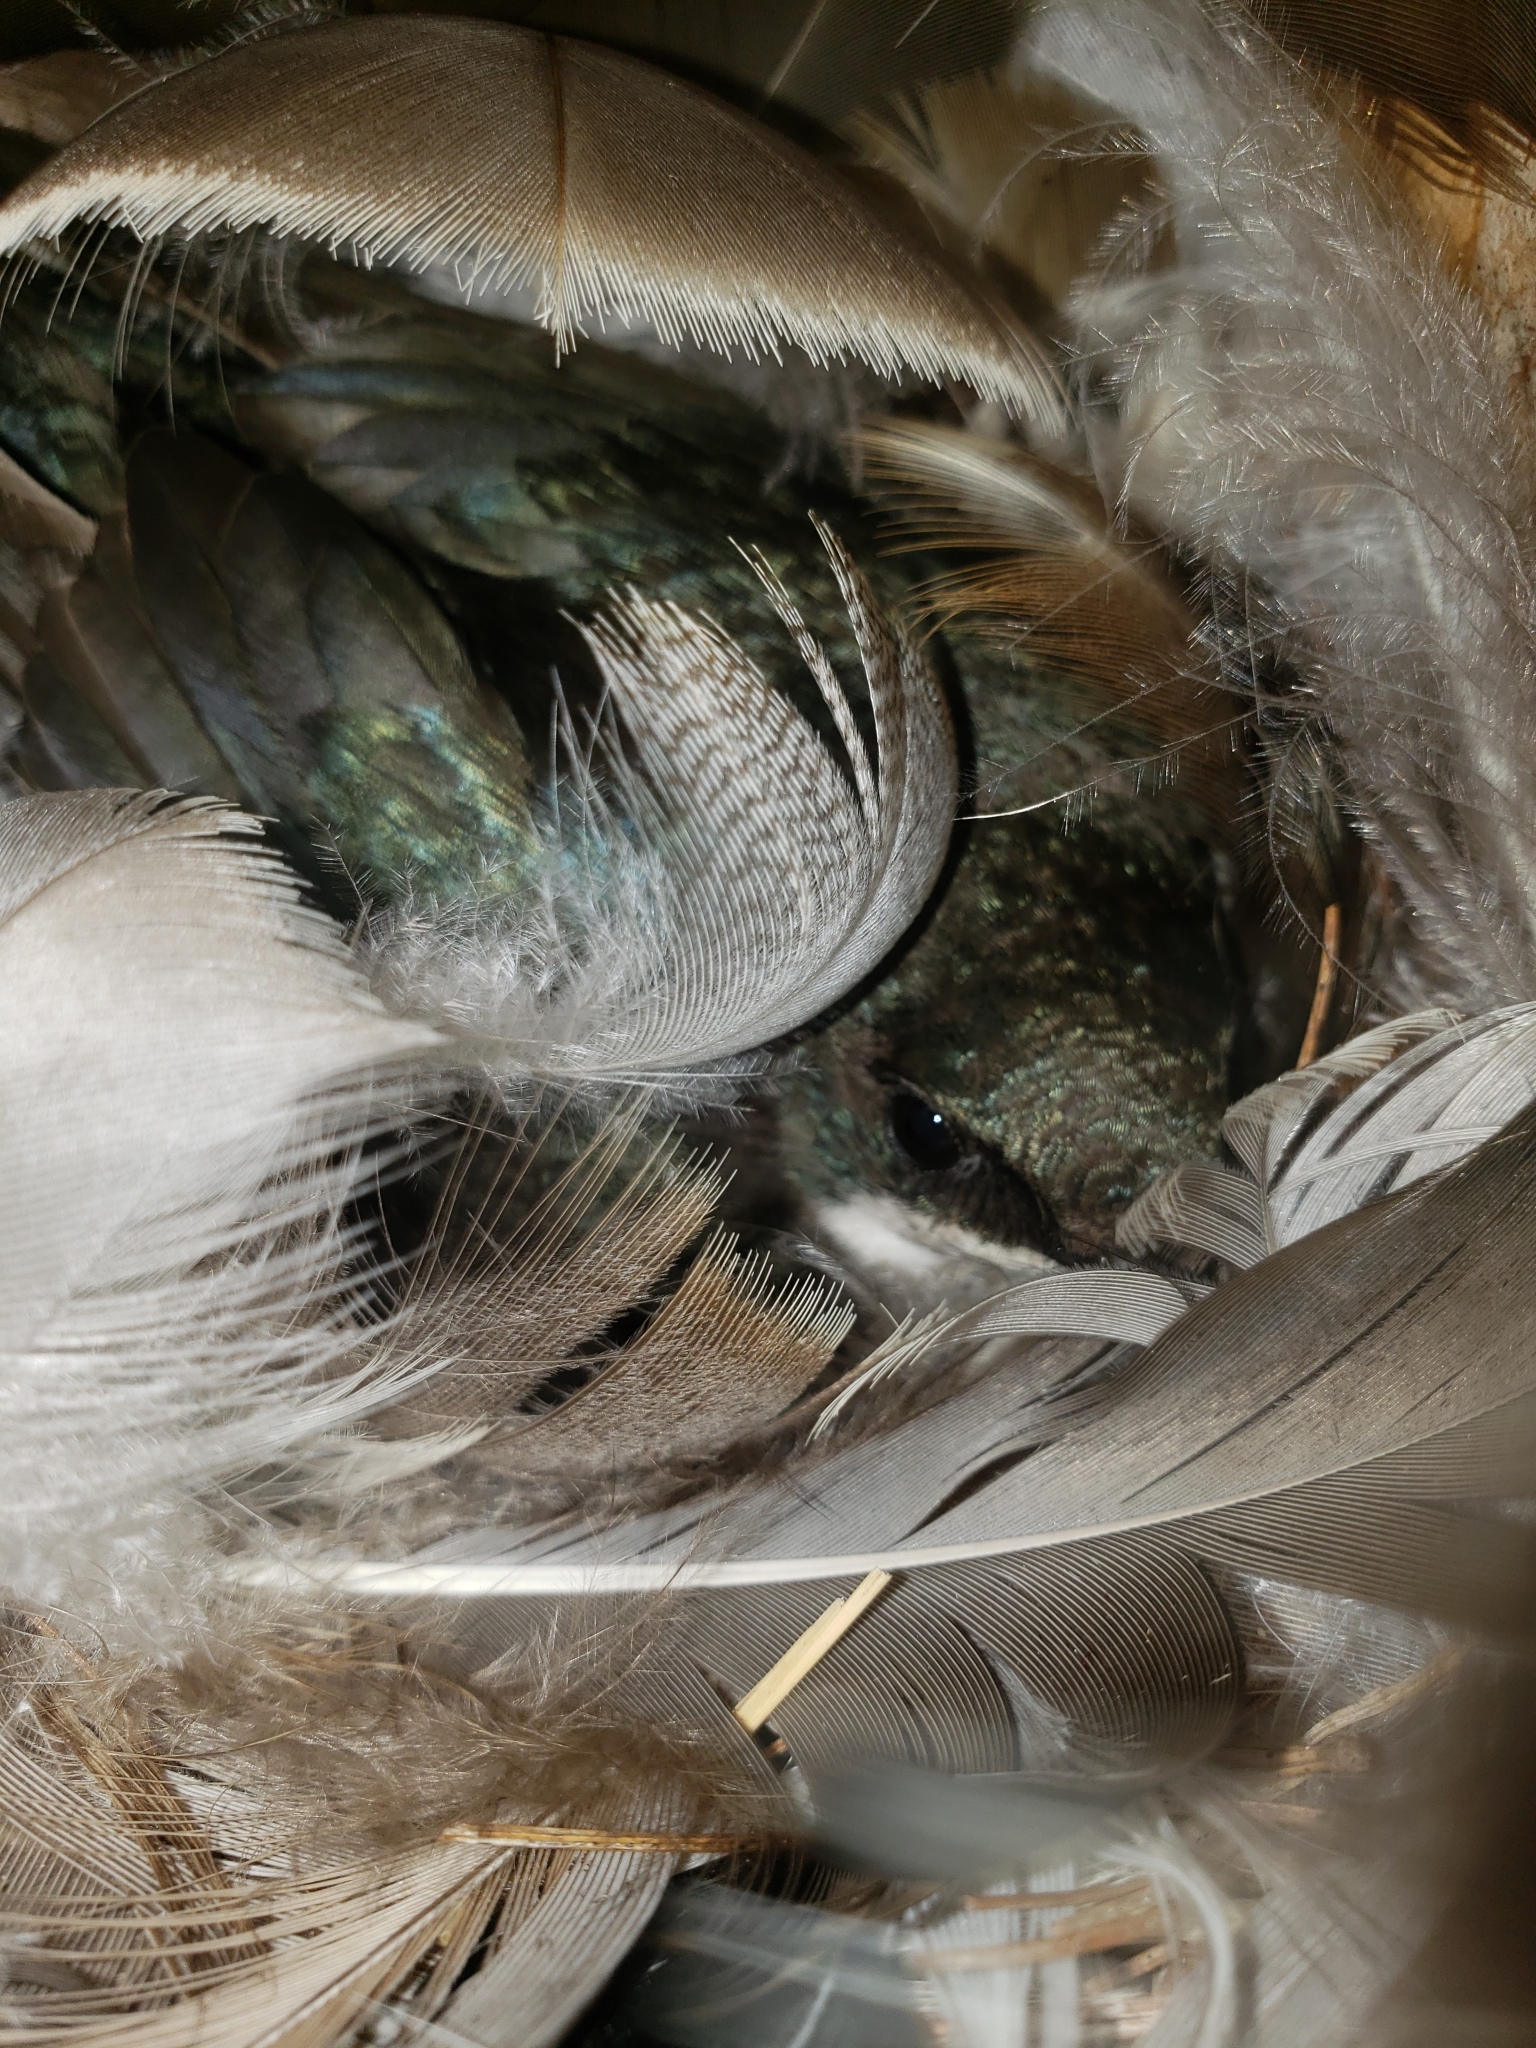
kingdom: Animalia
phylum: Chordata
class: Aves
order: Passeriformes
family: Hirundinidae
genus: Tachycineta
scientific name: Tachycineta bicolor
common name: Tree swallow
